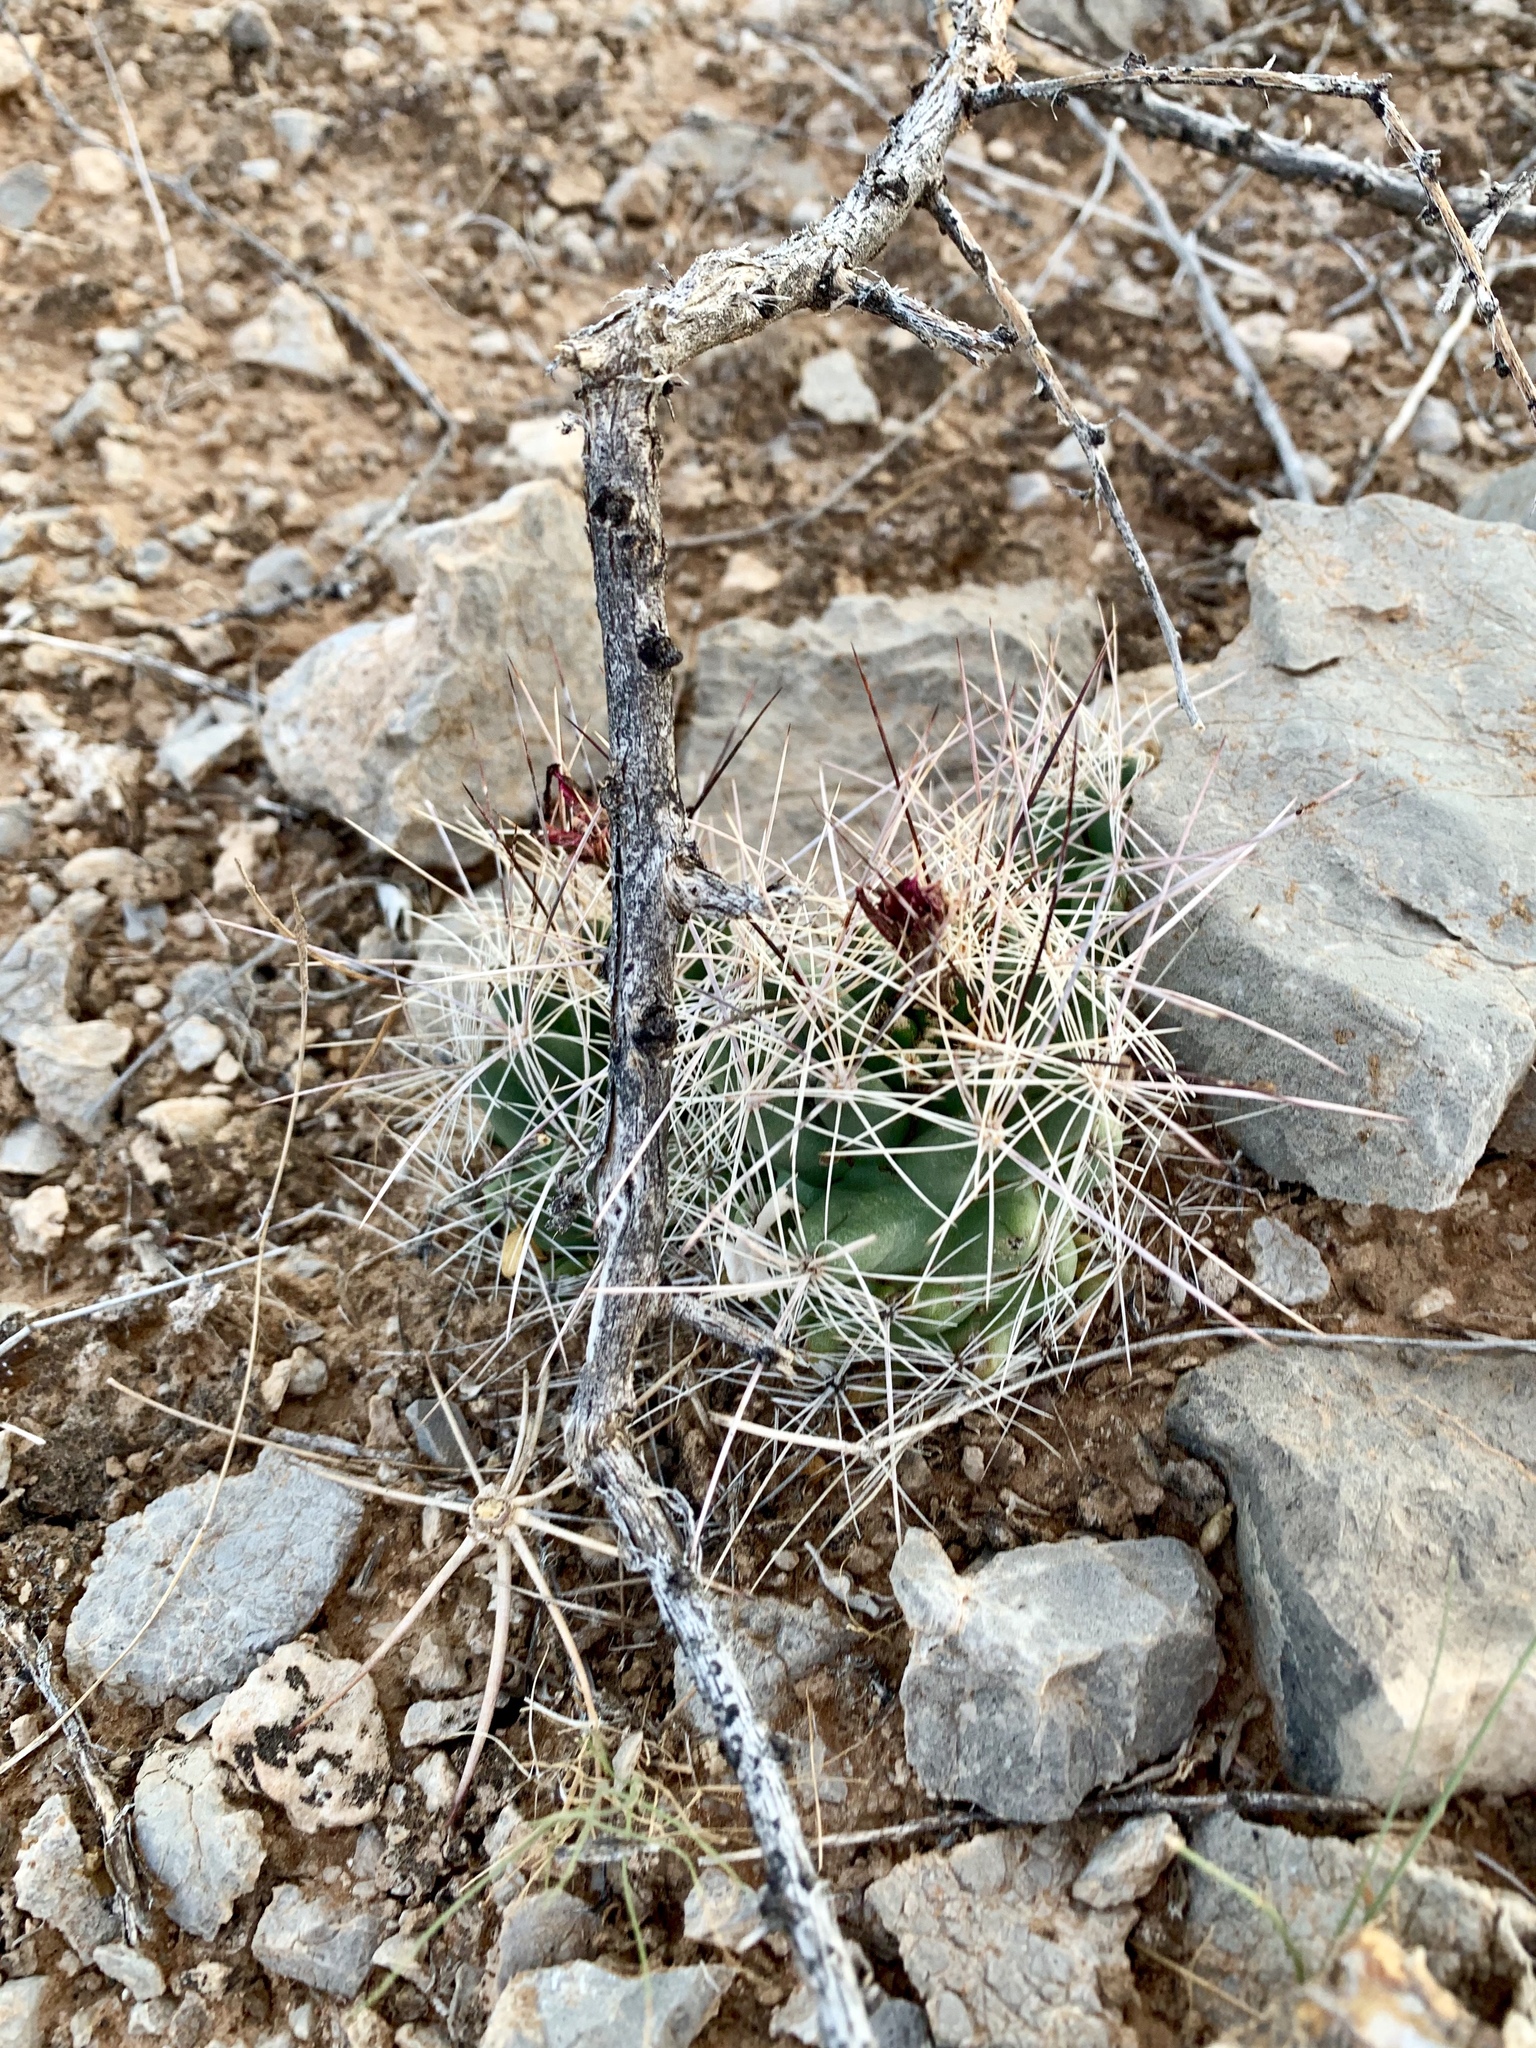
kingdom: Plantae
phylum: Tracheophyta
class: Magnoliopsida
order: Caryophyllales
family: Cactaceae
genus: Coryphantha
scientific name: Coryphantha macromeris
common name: Nipple beehive cactus
